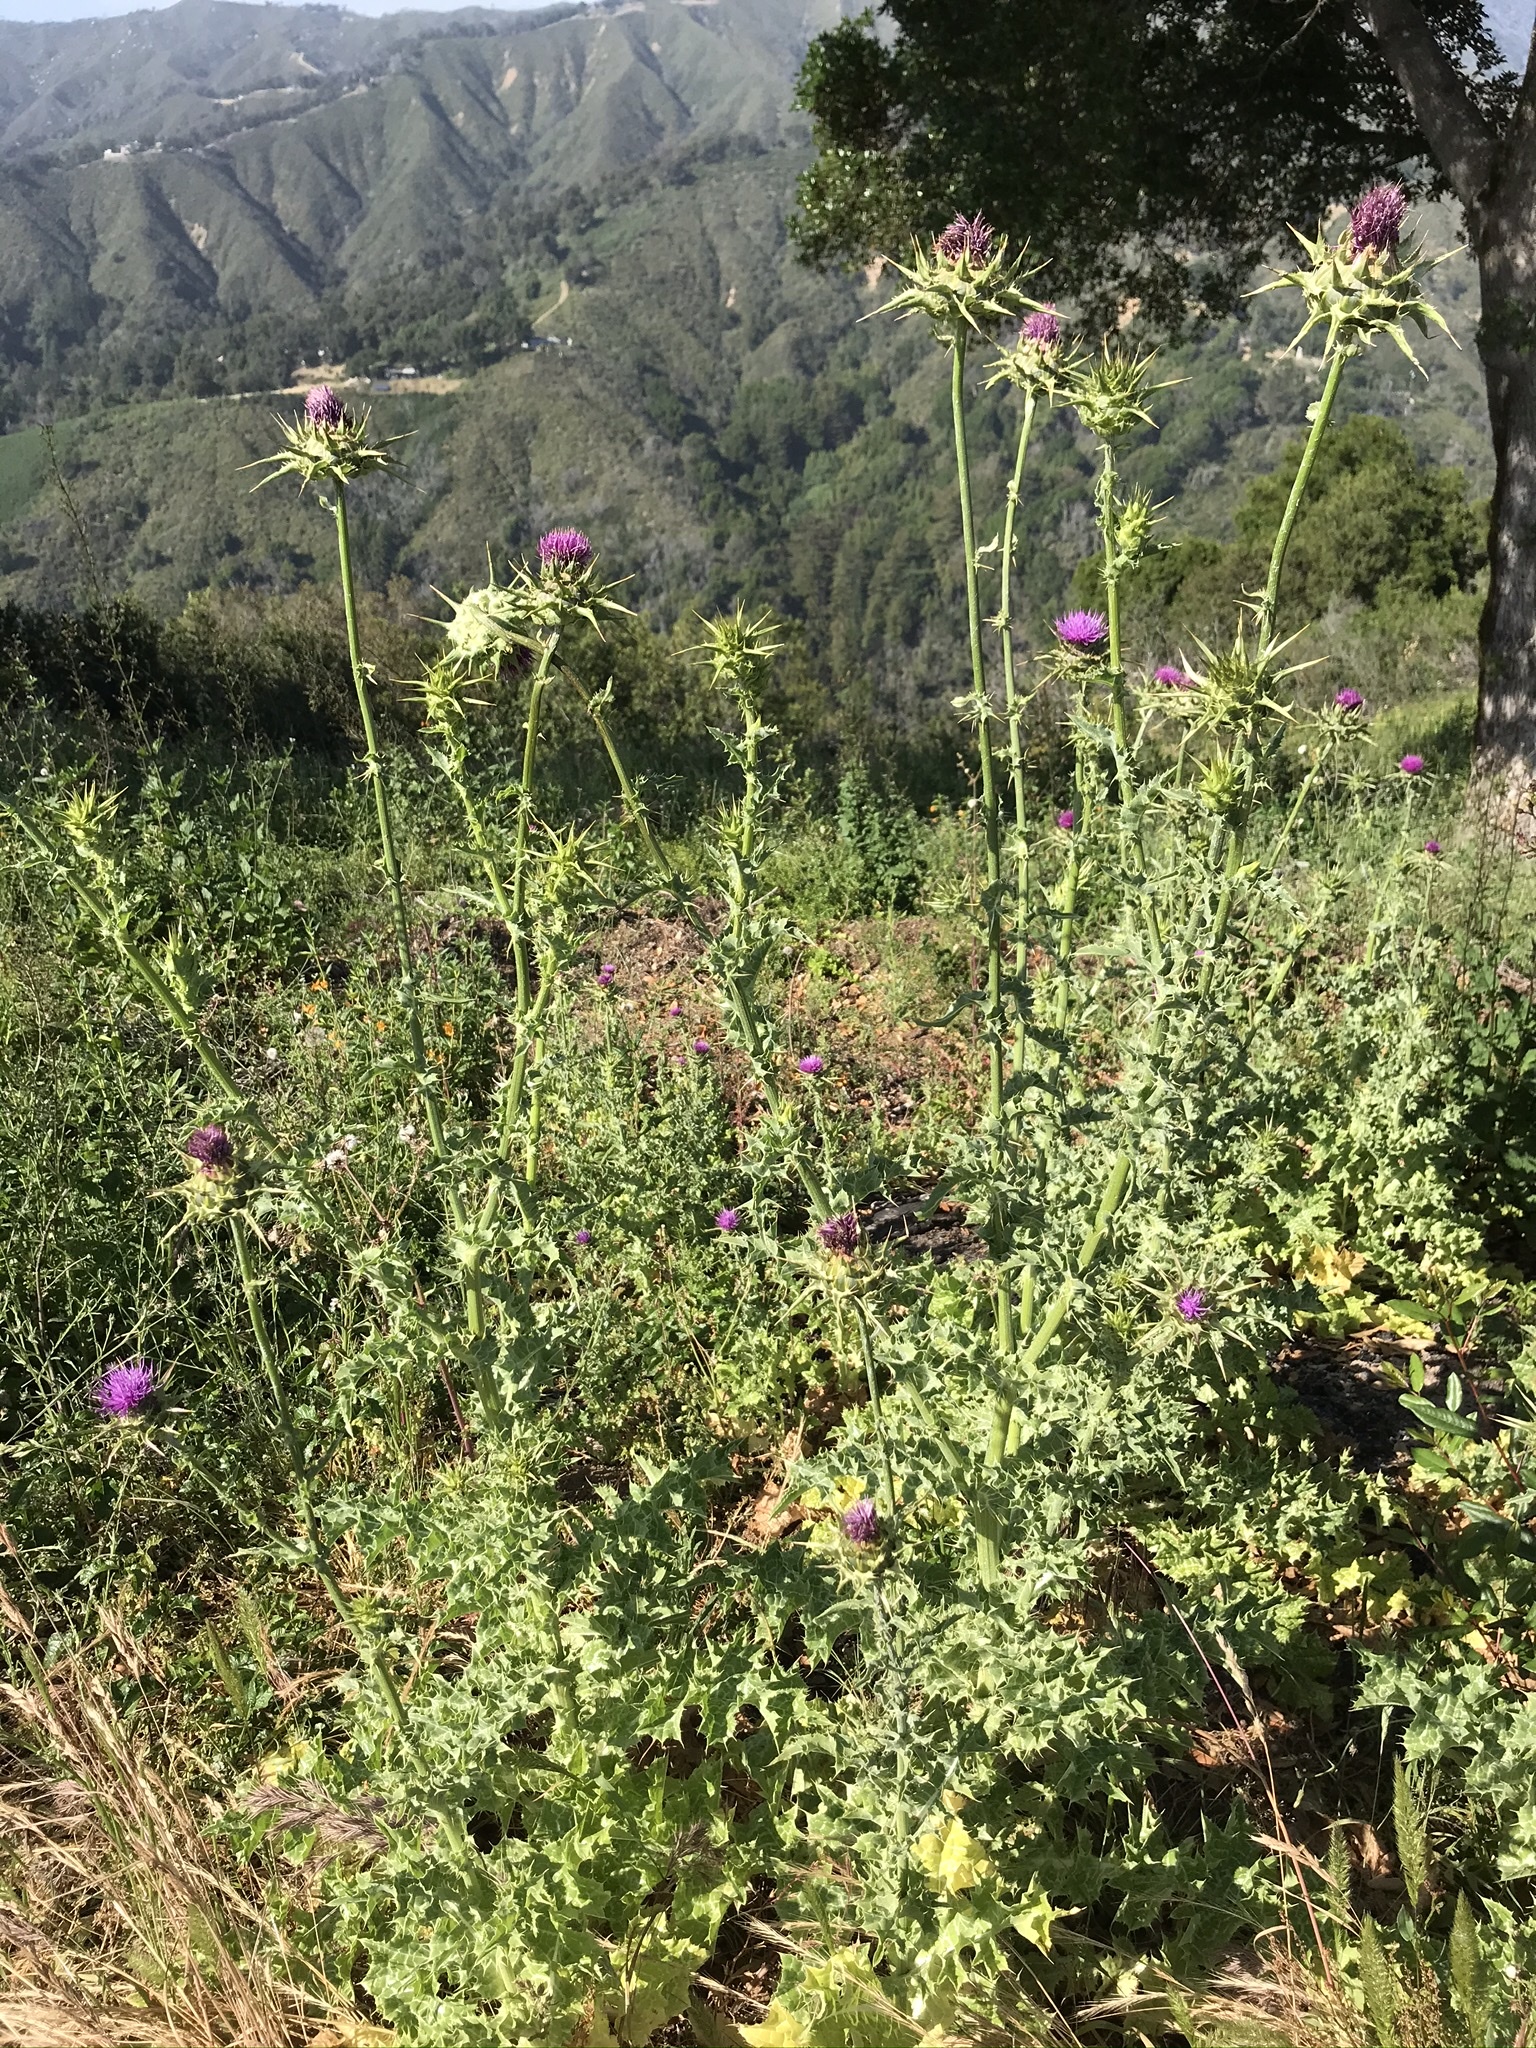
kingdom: Plantae
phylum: Tracheophyta
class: Magnoliopsida
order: Asterales
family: Asteraceae
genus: Silybum
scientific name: Silybum marianum
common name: Milk thistle
